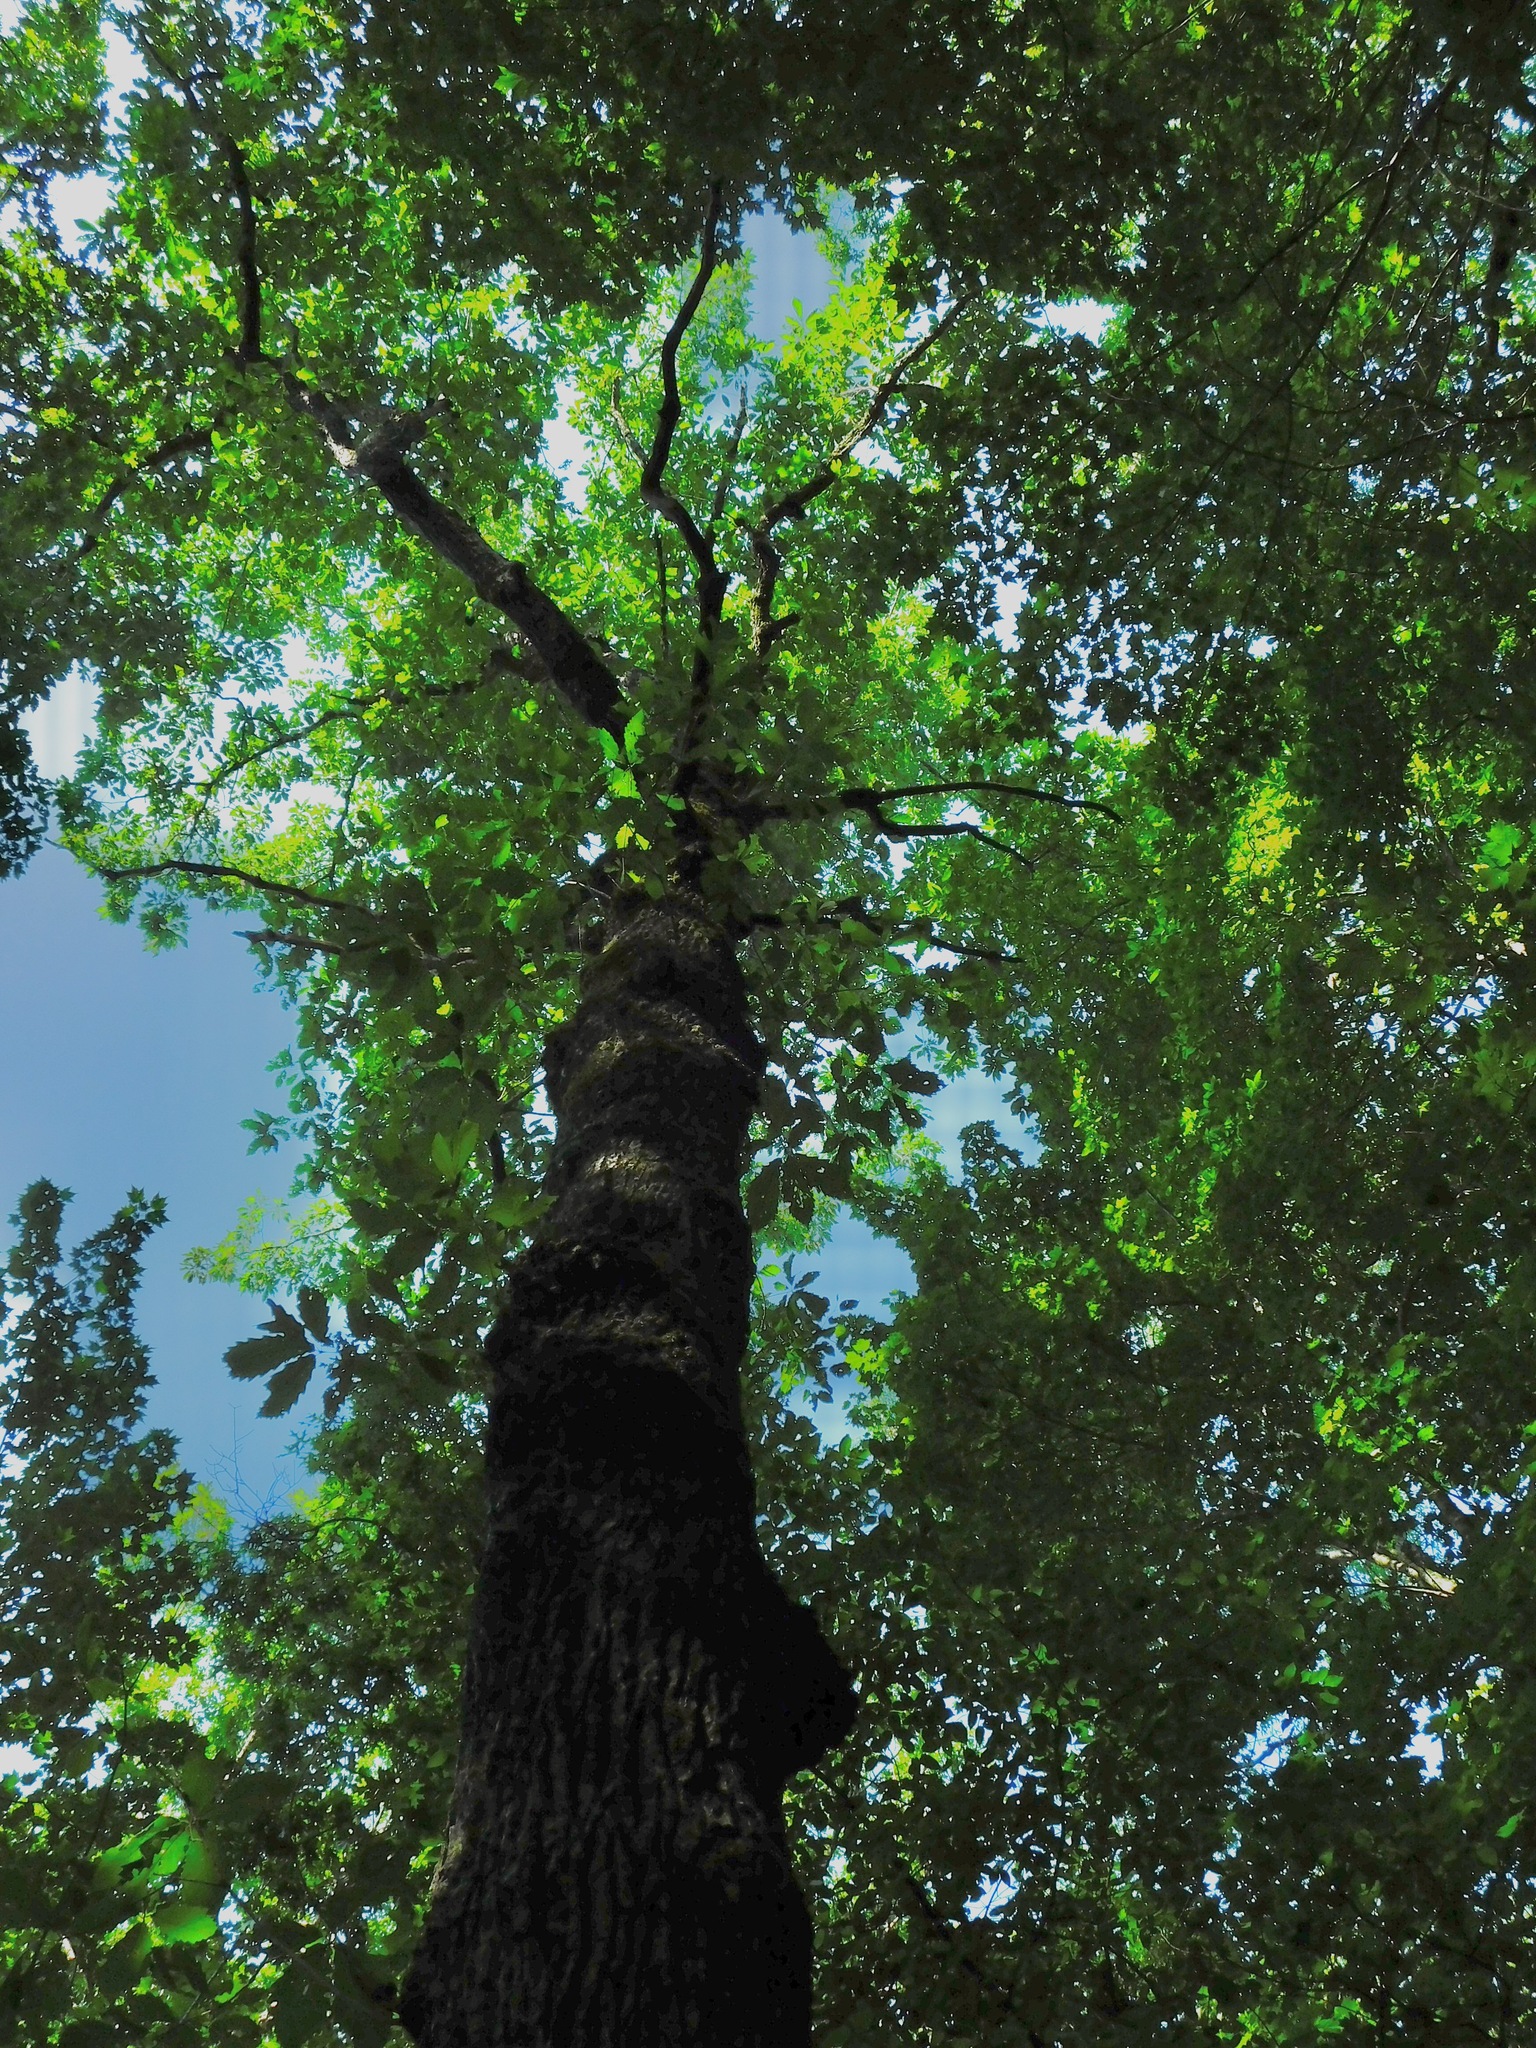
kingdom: Plantae
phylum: Tracheophyta
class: Magnoliopsida
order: Fagales
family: Fagaceae
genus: Quercus
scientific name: Quercus montana
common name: Chestnut oak
